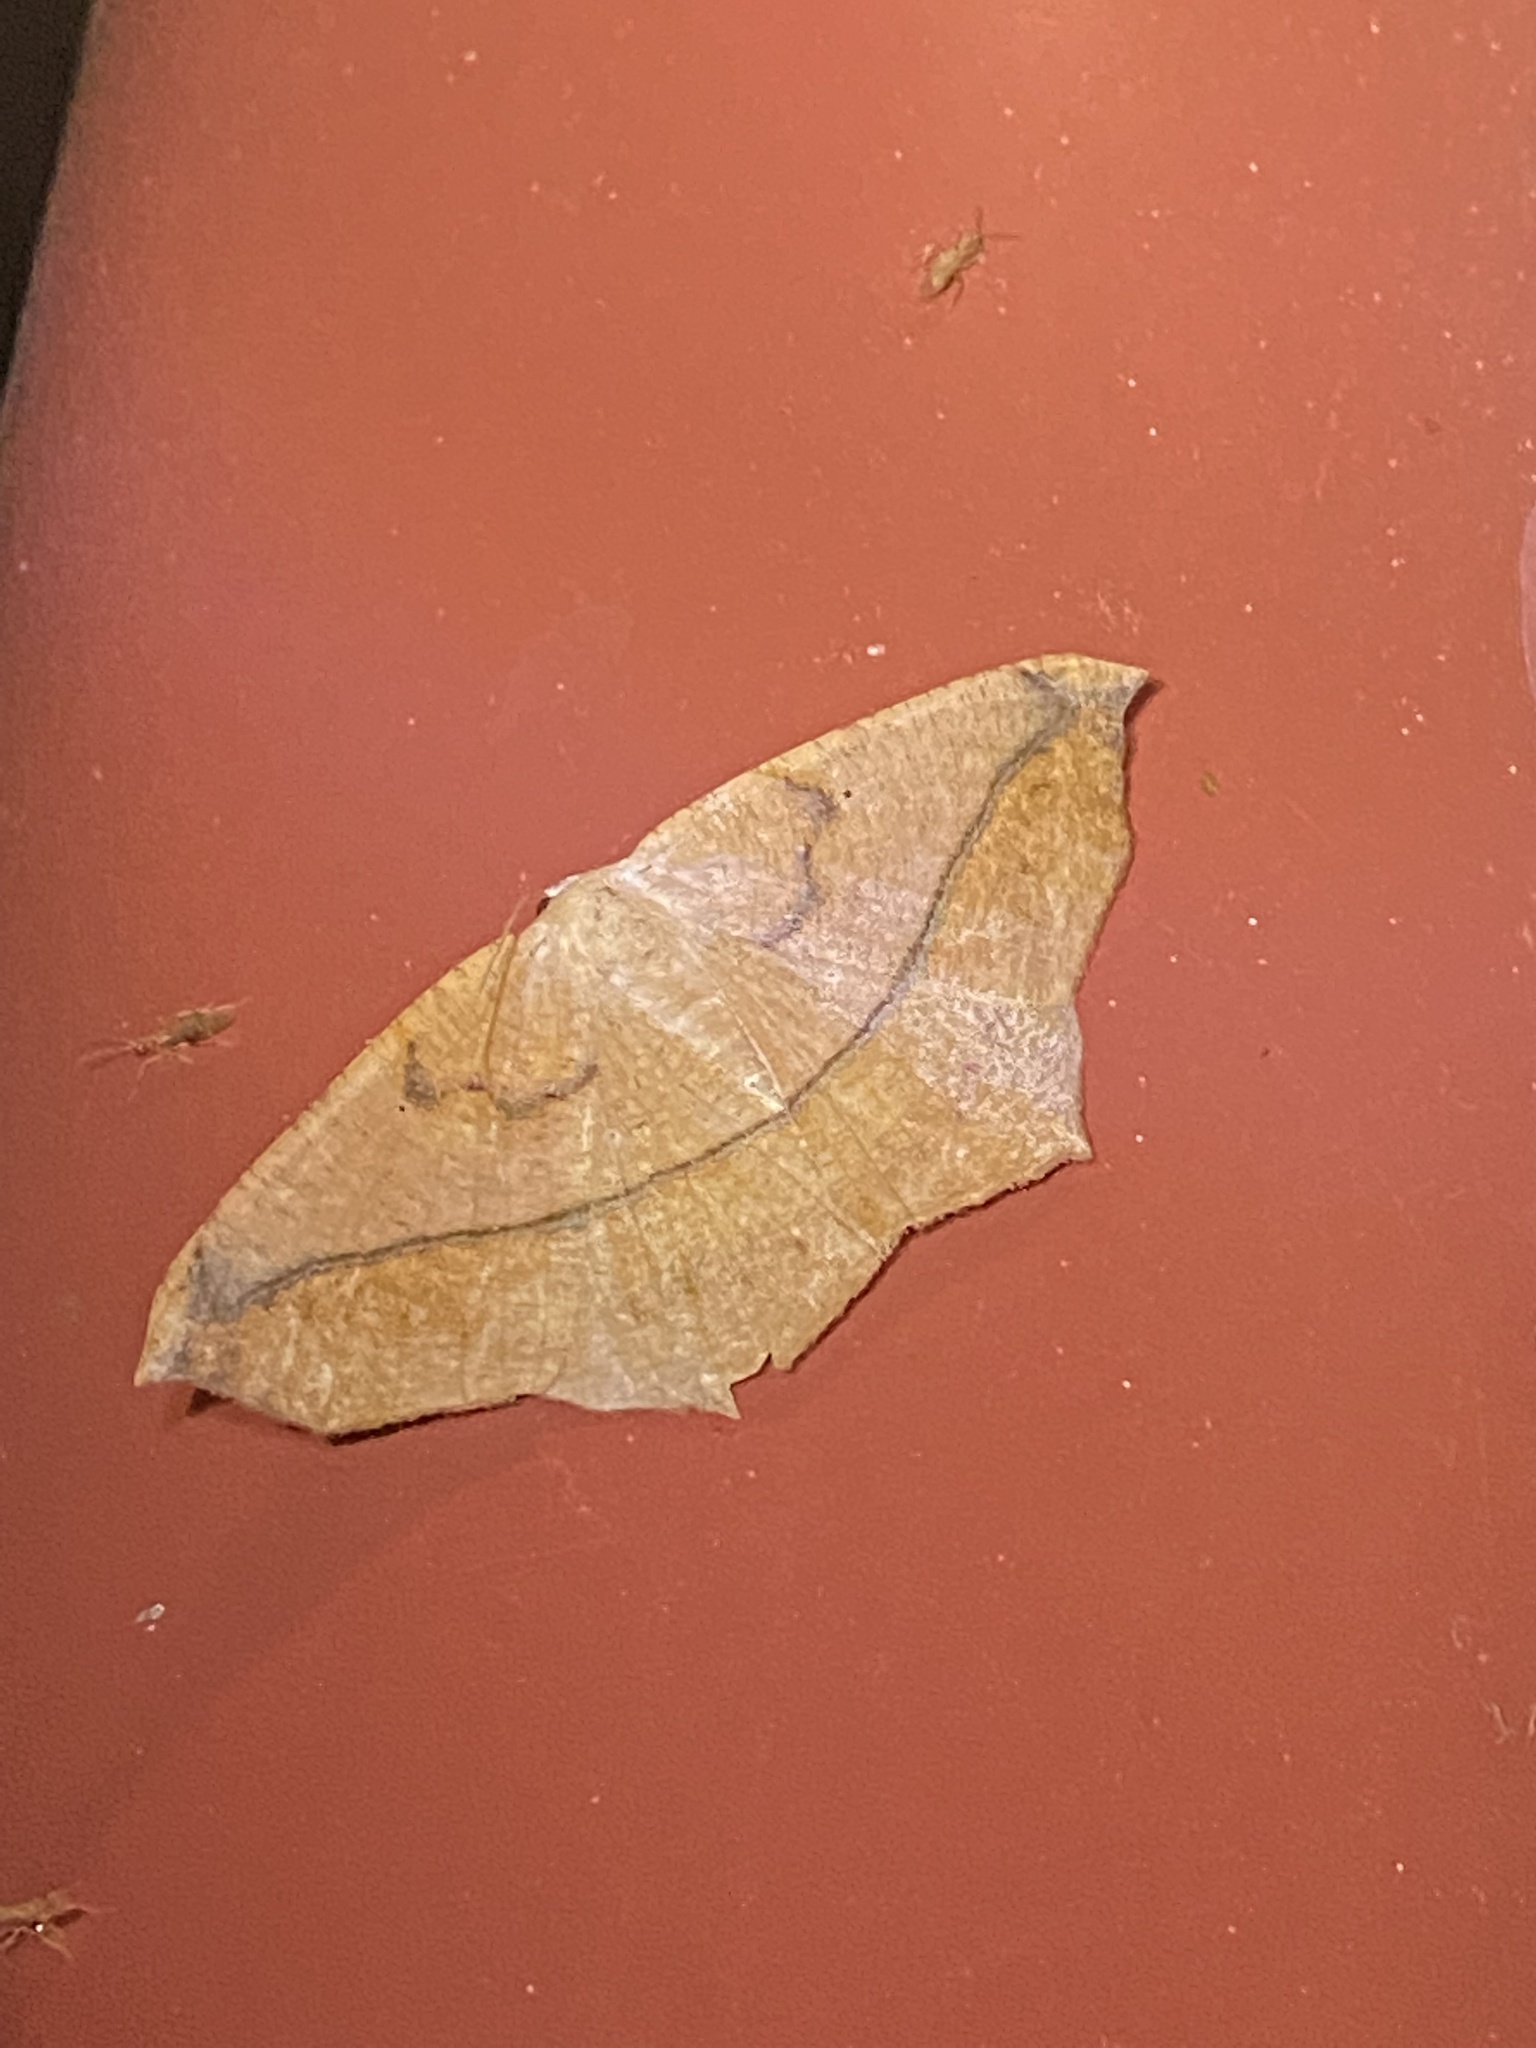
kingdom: Animalia
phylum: Arthropoda
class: Insecta
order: Lepidoptera
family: Geometridae
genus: Prochoerodes
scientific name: Prochoerodes lineola
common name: Large maple spanworm
